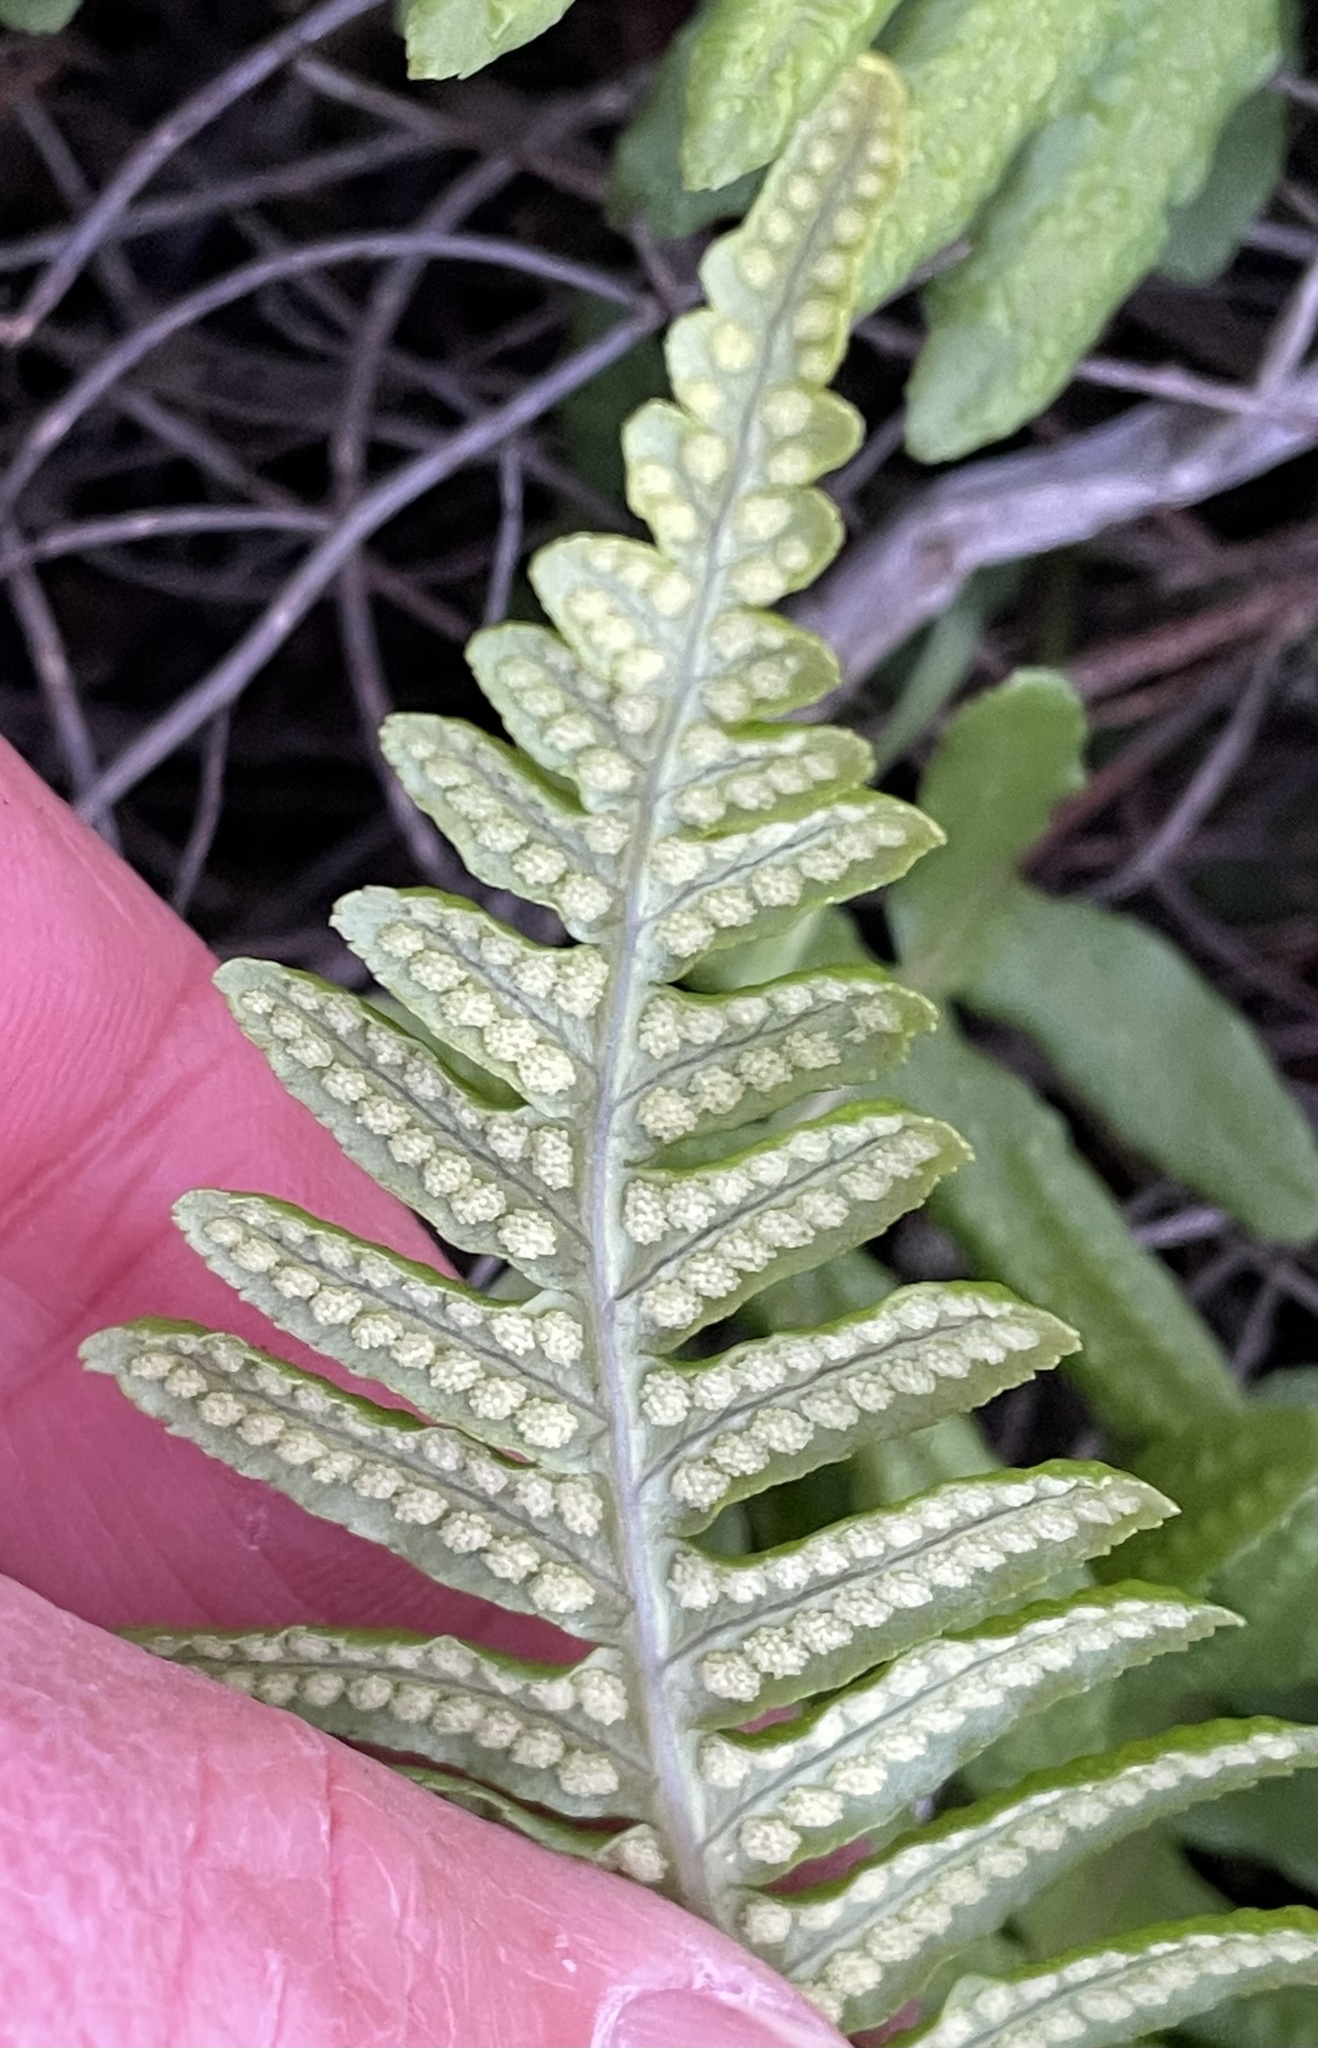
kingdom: Plantae
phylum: Tracheophyta
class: Polypodiopsida
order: Polypodiales
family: Polypodiaceae
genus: Polypodium
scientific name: Polypodium californicum
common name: California polypody
